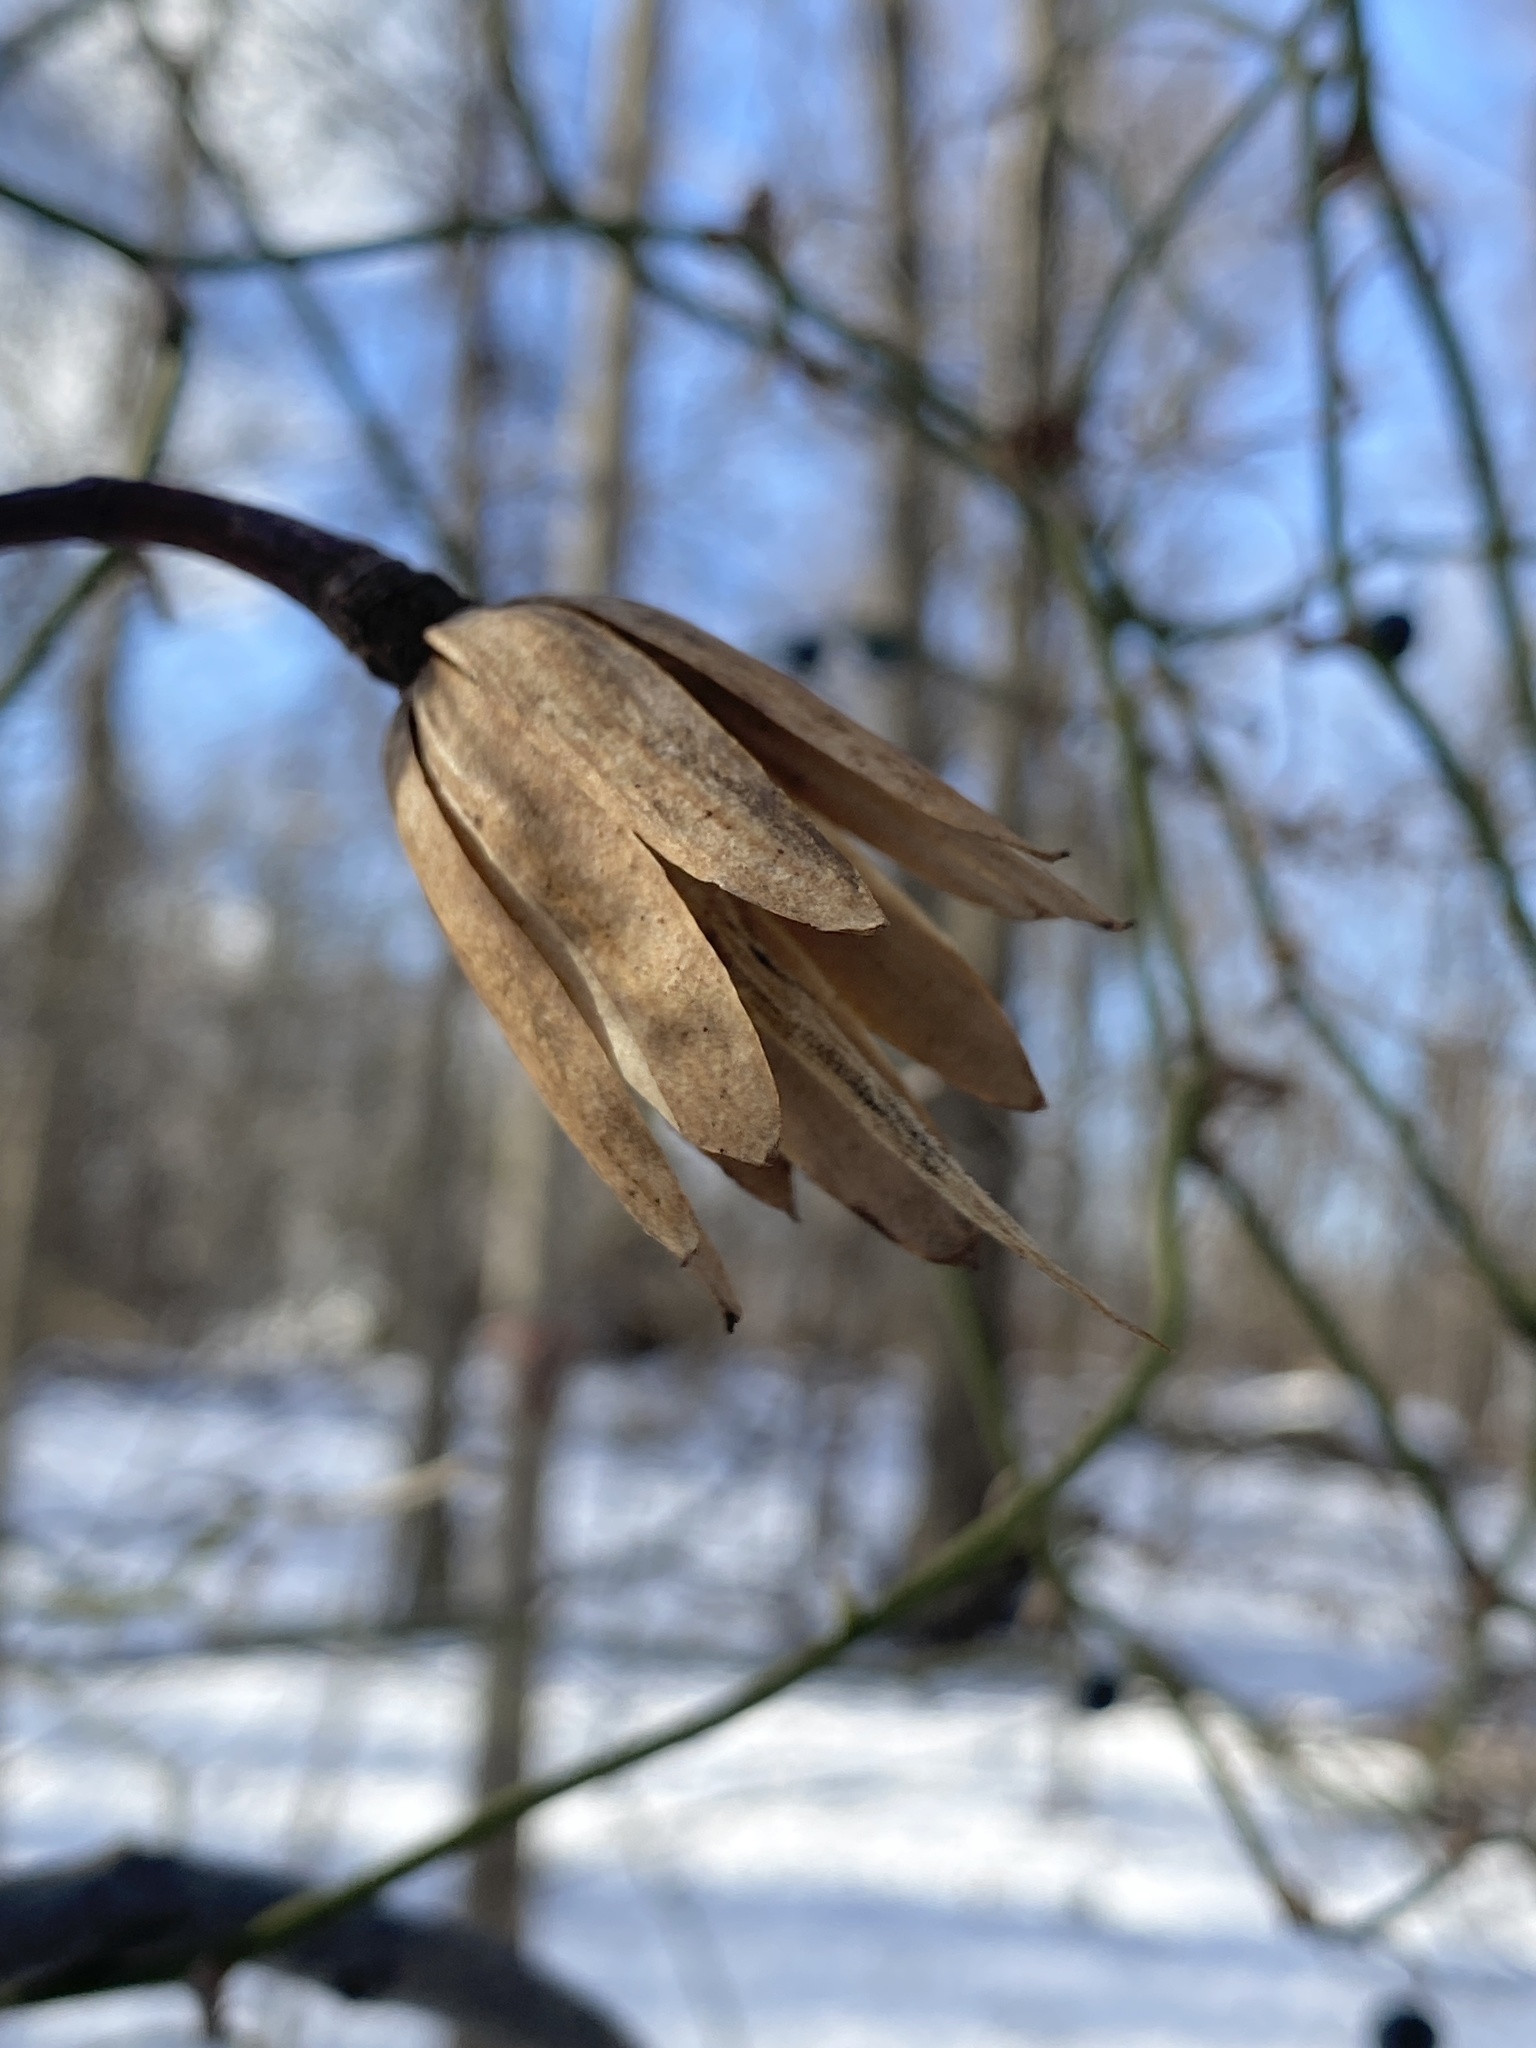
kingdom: Plantae
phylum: Tracheophyta
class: Magnoliopsida
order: Magnoliales
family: Magnoliaceae
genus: Liriodendron
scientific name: Liriodendron tulipifera
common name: Tulip tree
